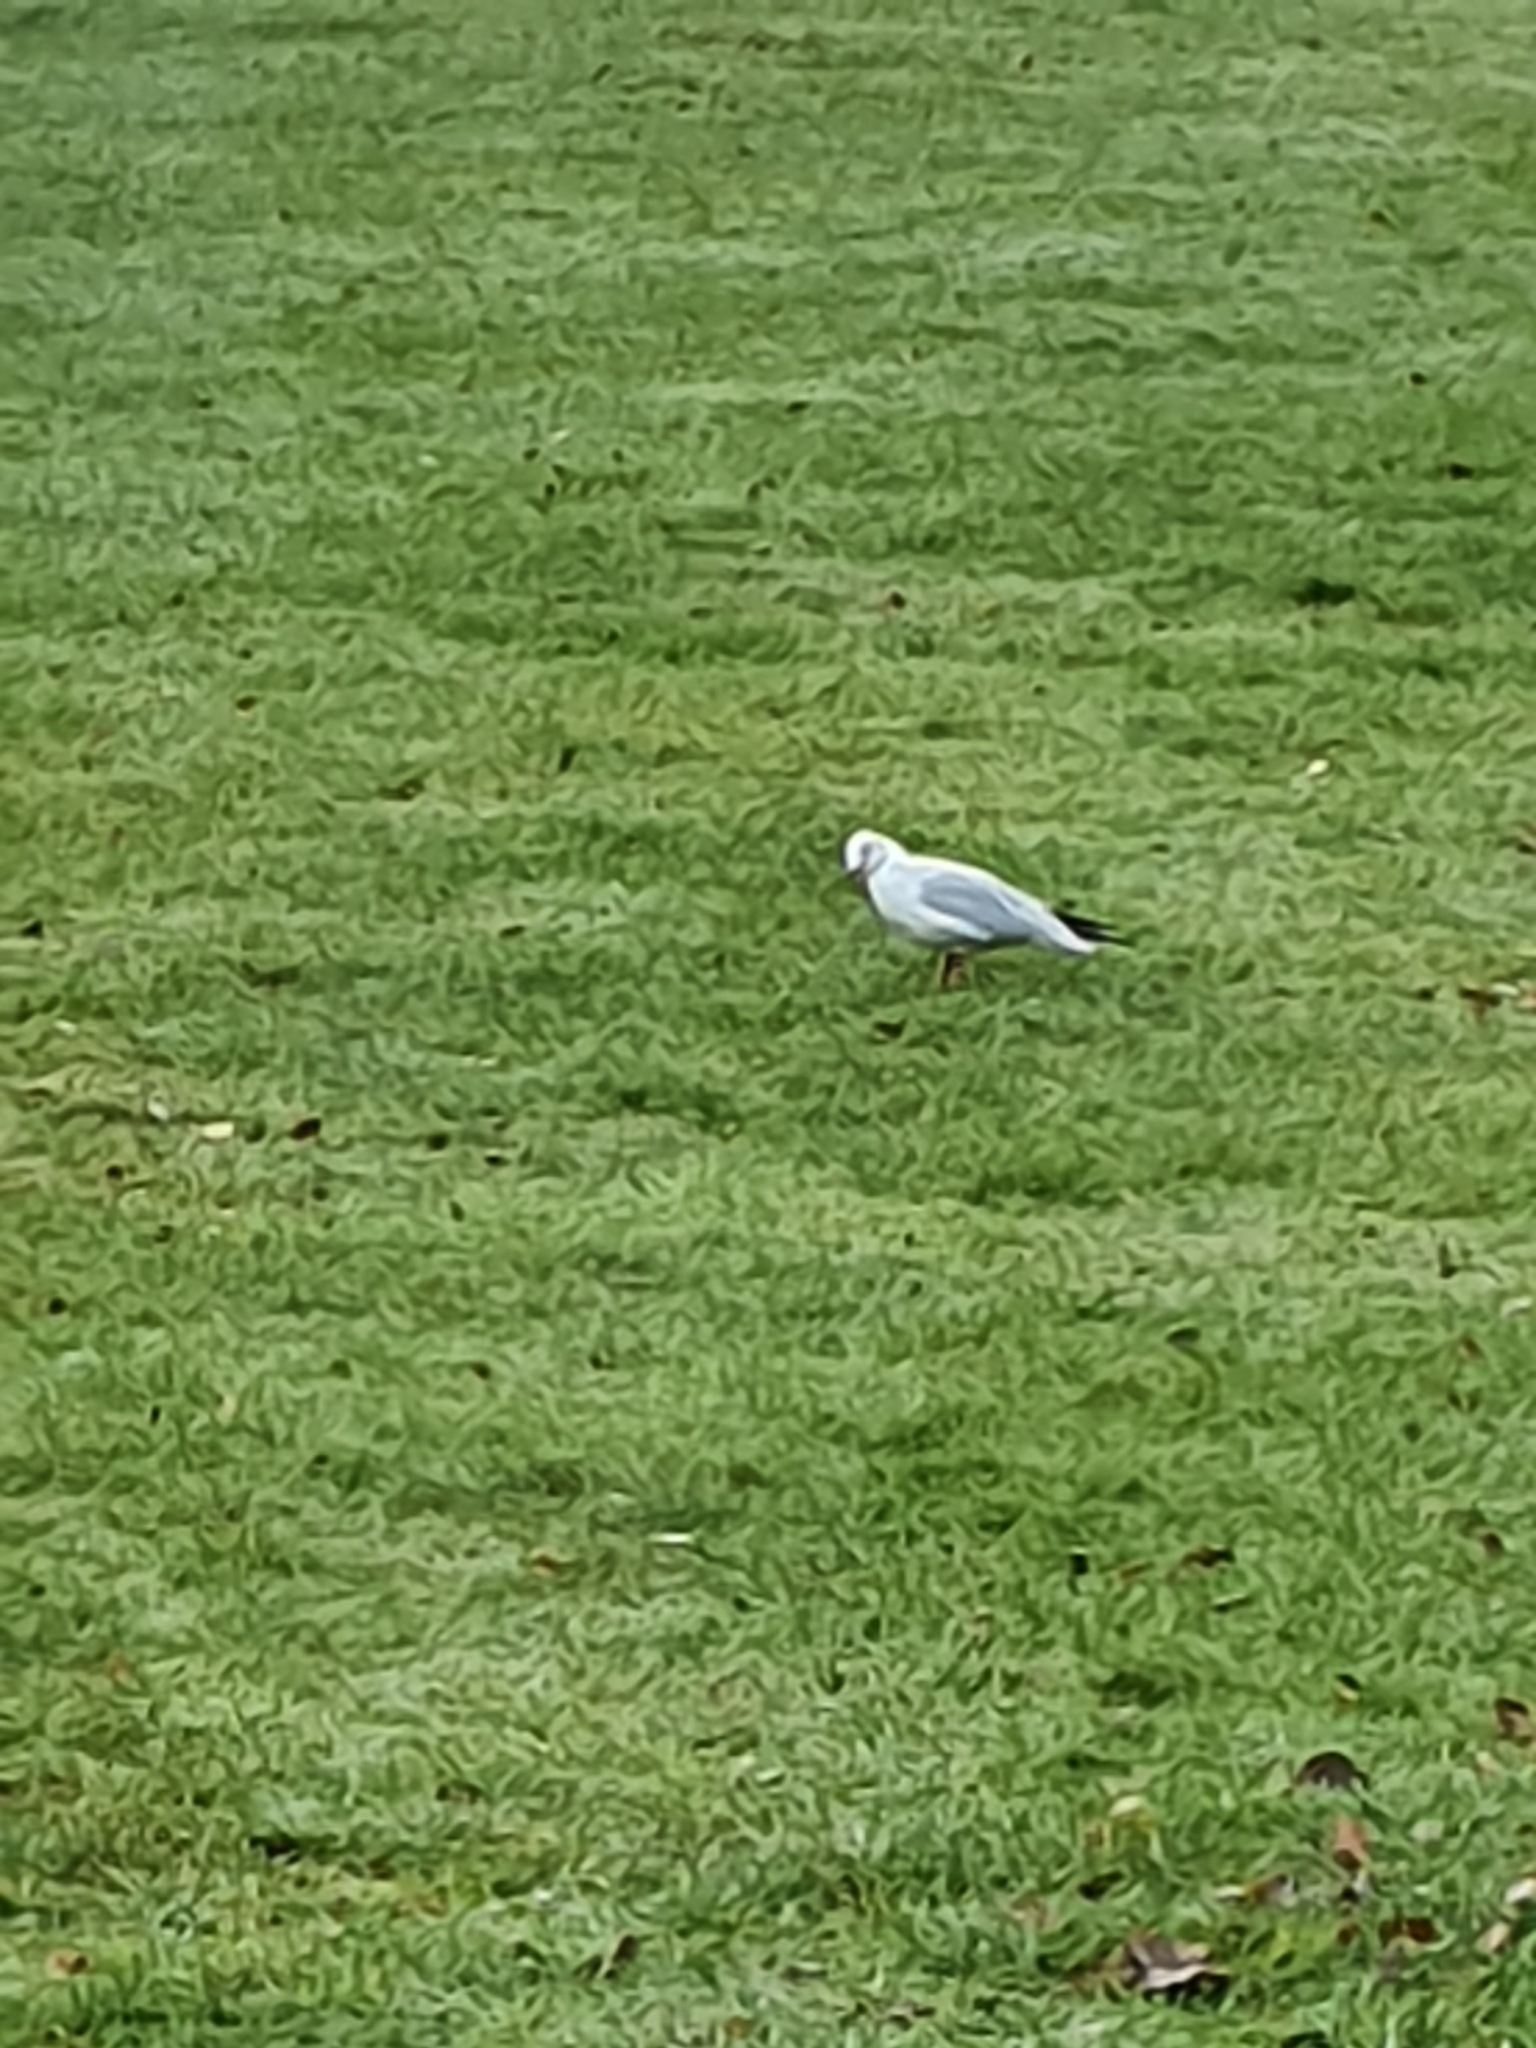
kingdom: Animalia
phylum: Chordata
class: Aves
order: Charadriiformes
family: Laridae
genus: Chroicocephalus
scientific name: Chroicocephalus ridibundus
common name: Black-headed gull
